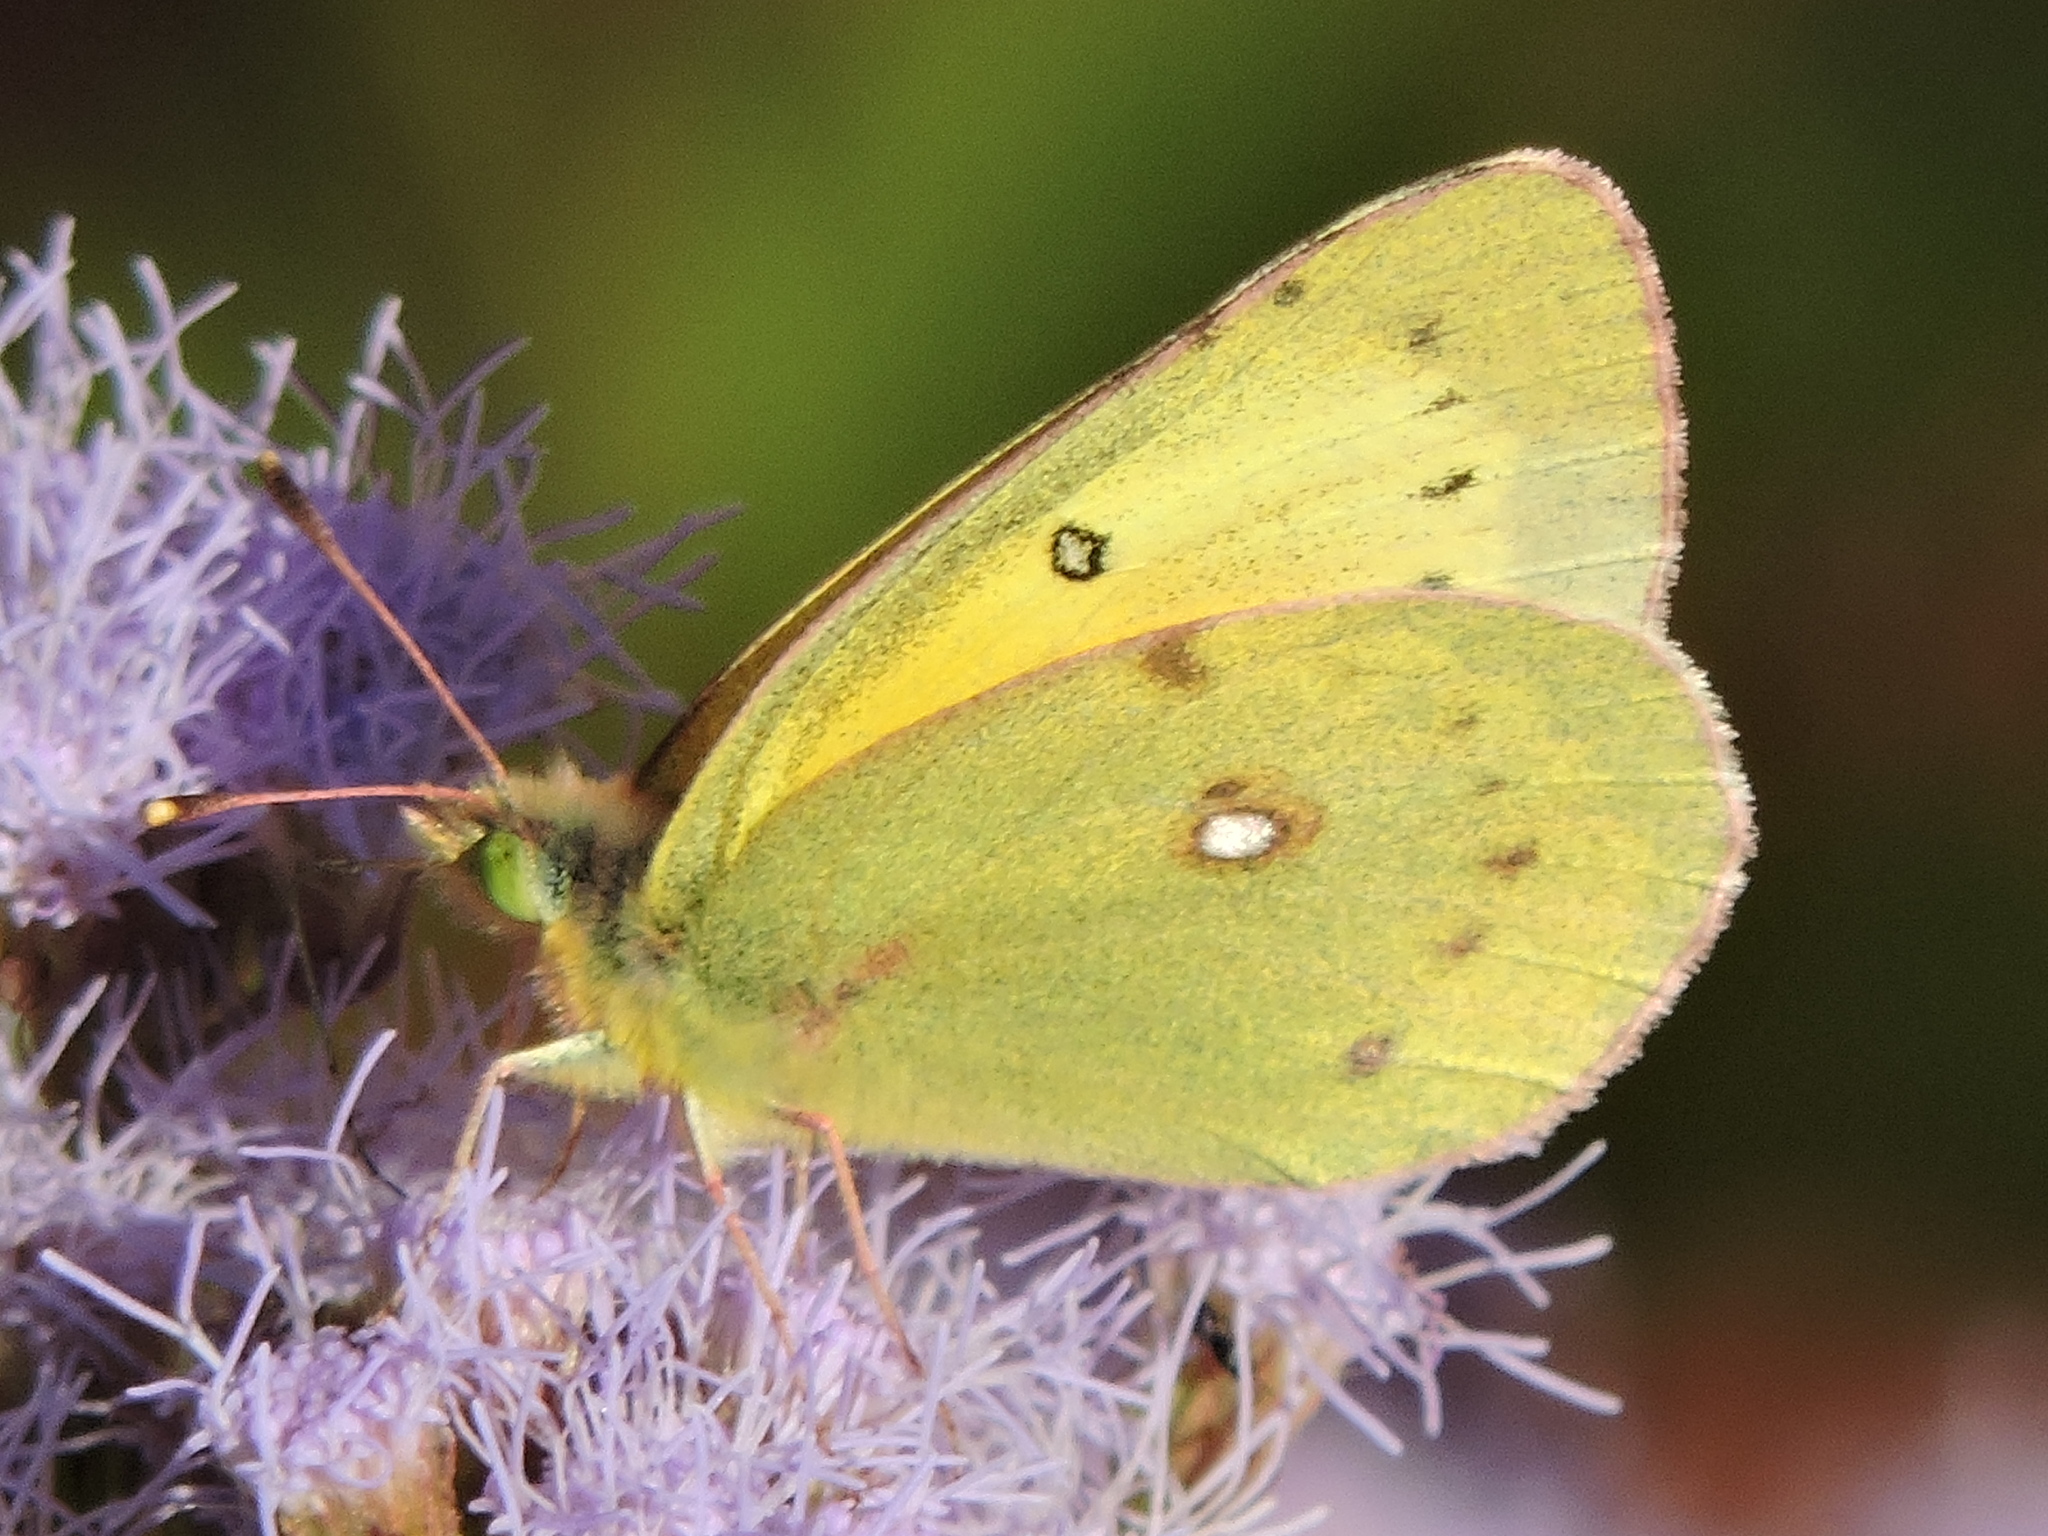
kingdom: Animalia
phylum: Arthropoda
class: Insecta
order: Lepidoptera
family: Pieridae
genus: Colias
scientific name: Colias eurytheme
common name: Alfalfa butterfly
